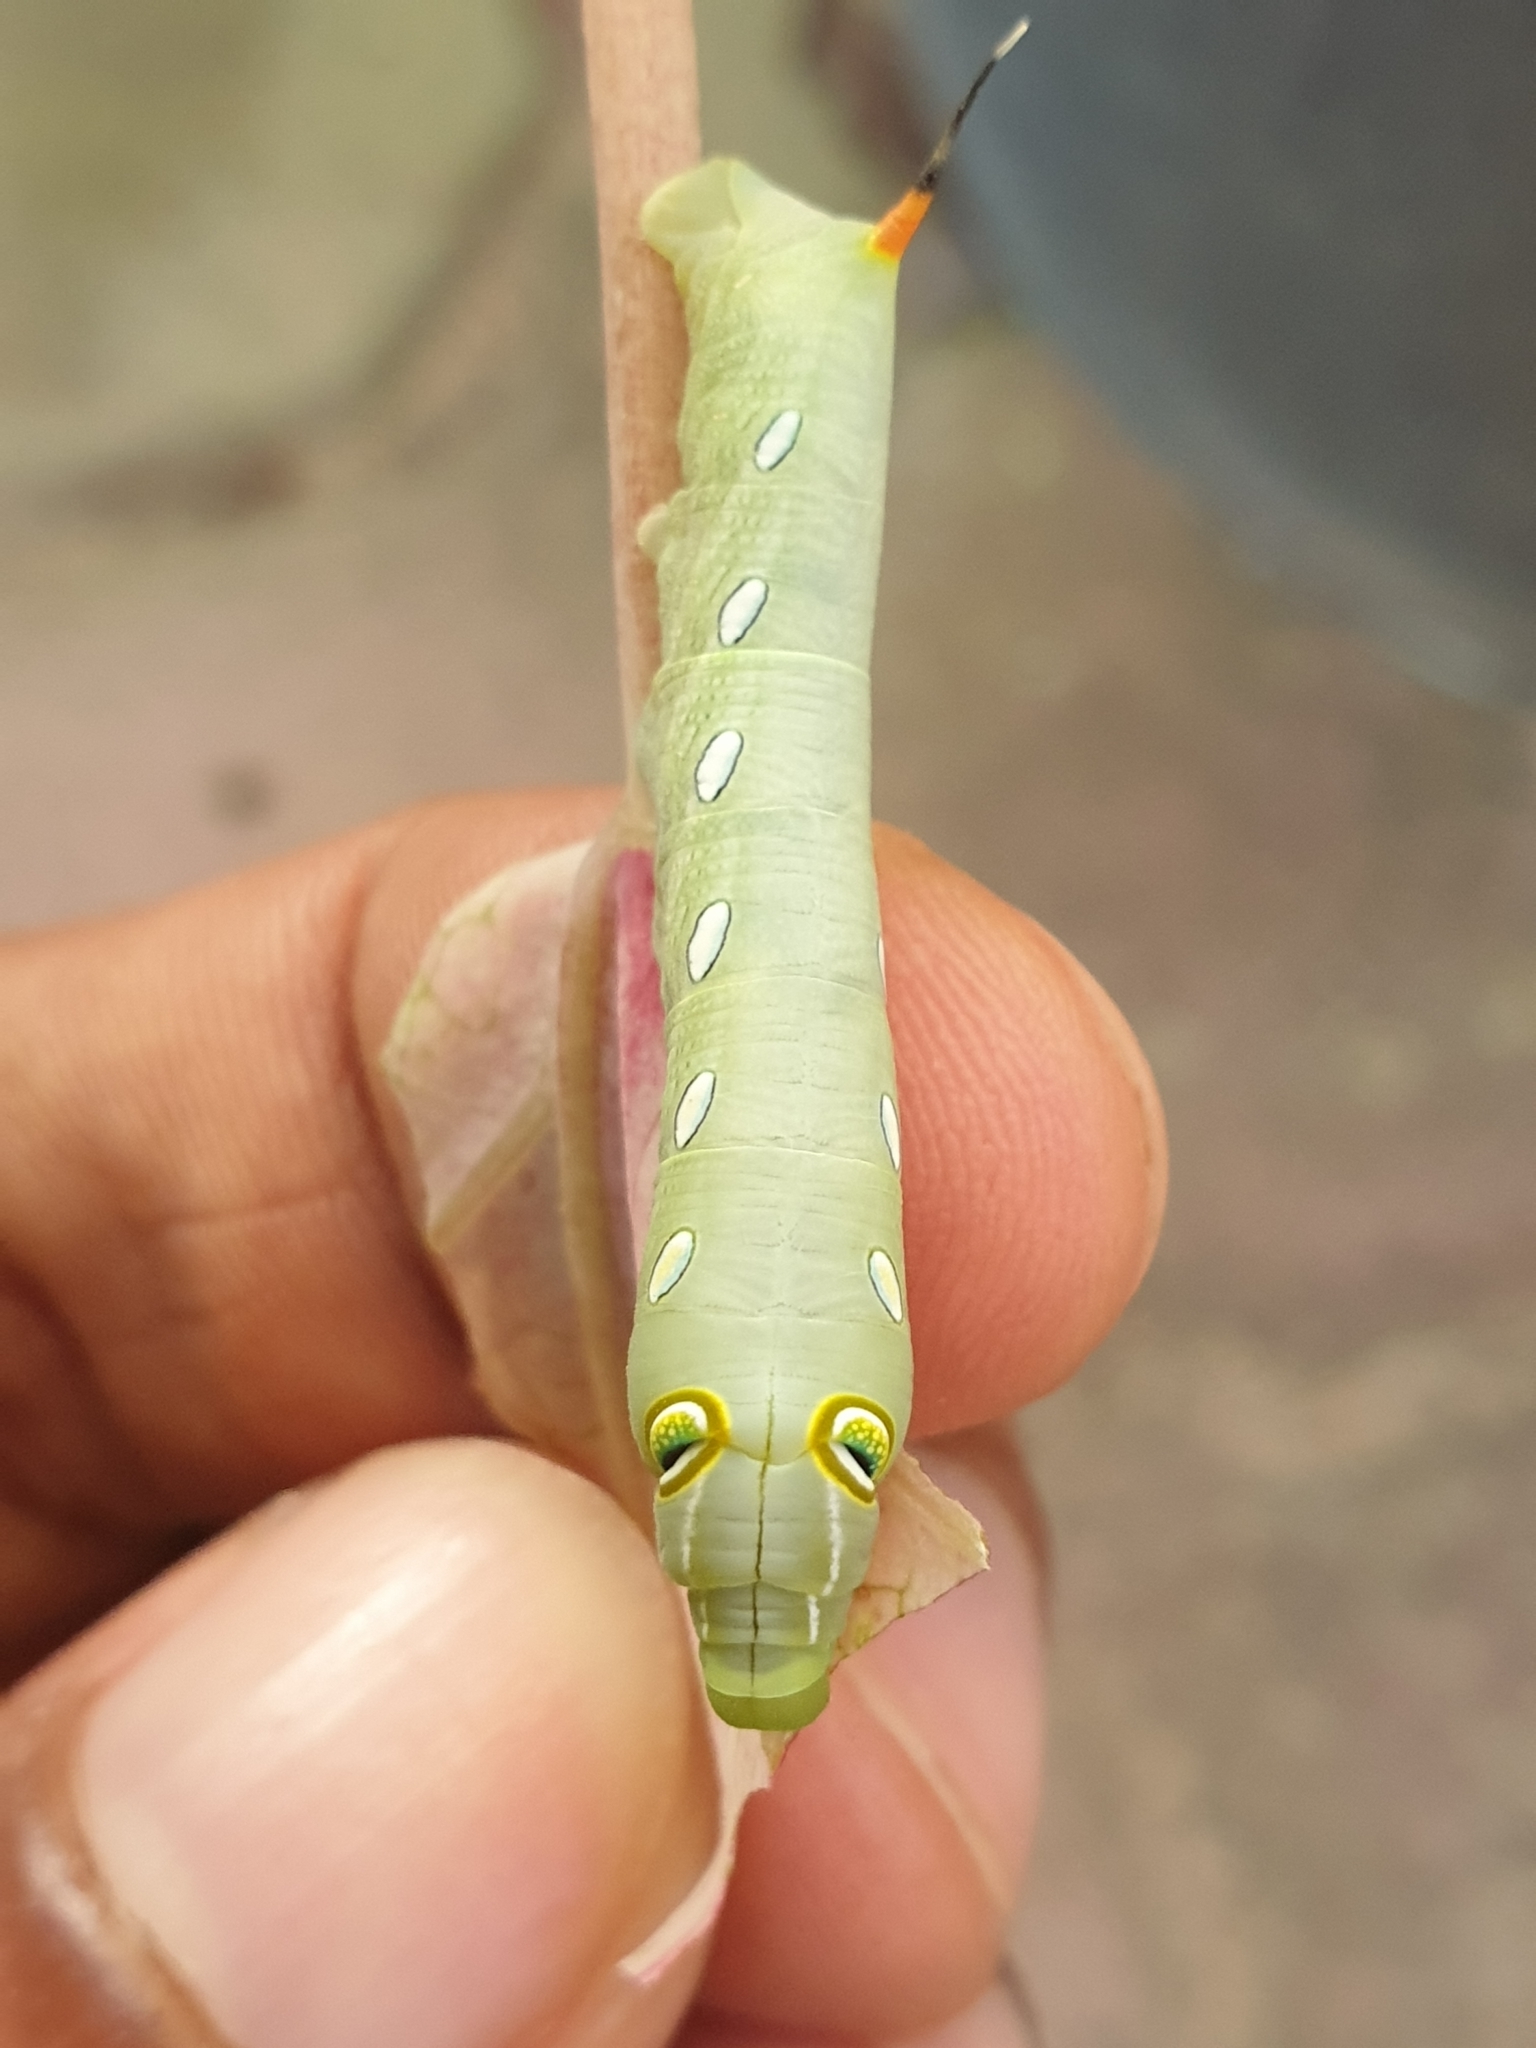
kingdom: Animalia
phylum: Arthropoda
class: Insecta
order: Lepidoptera
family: Sphingidae
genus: Pergesa
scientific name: Pergesa acteus
